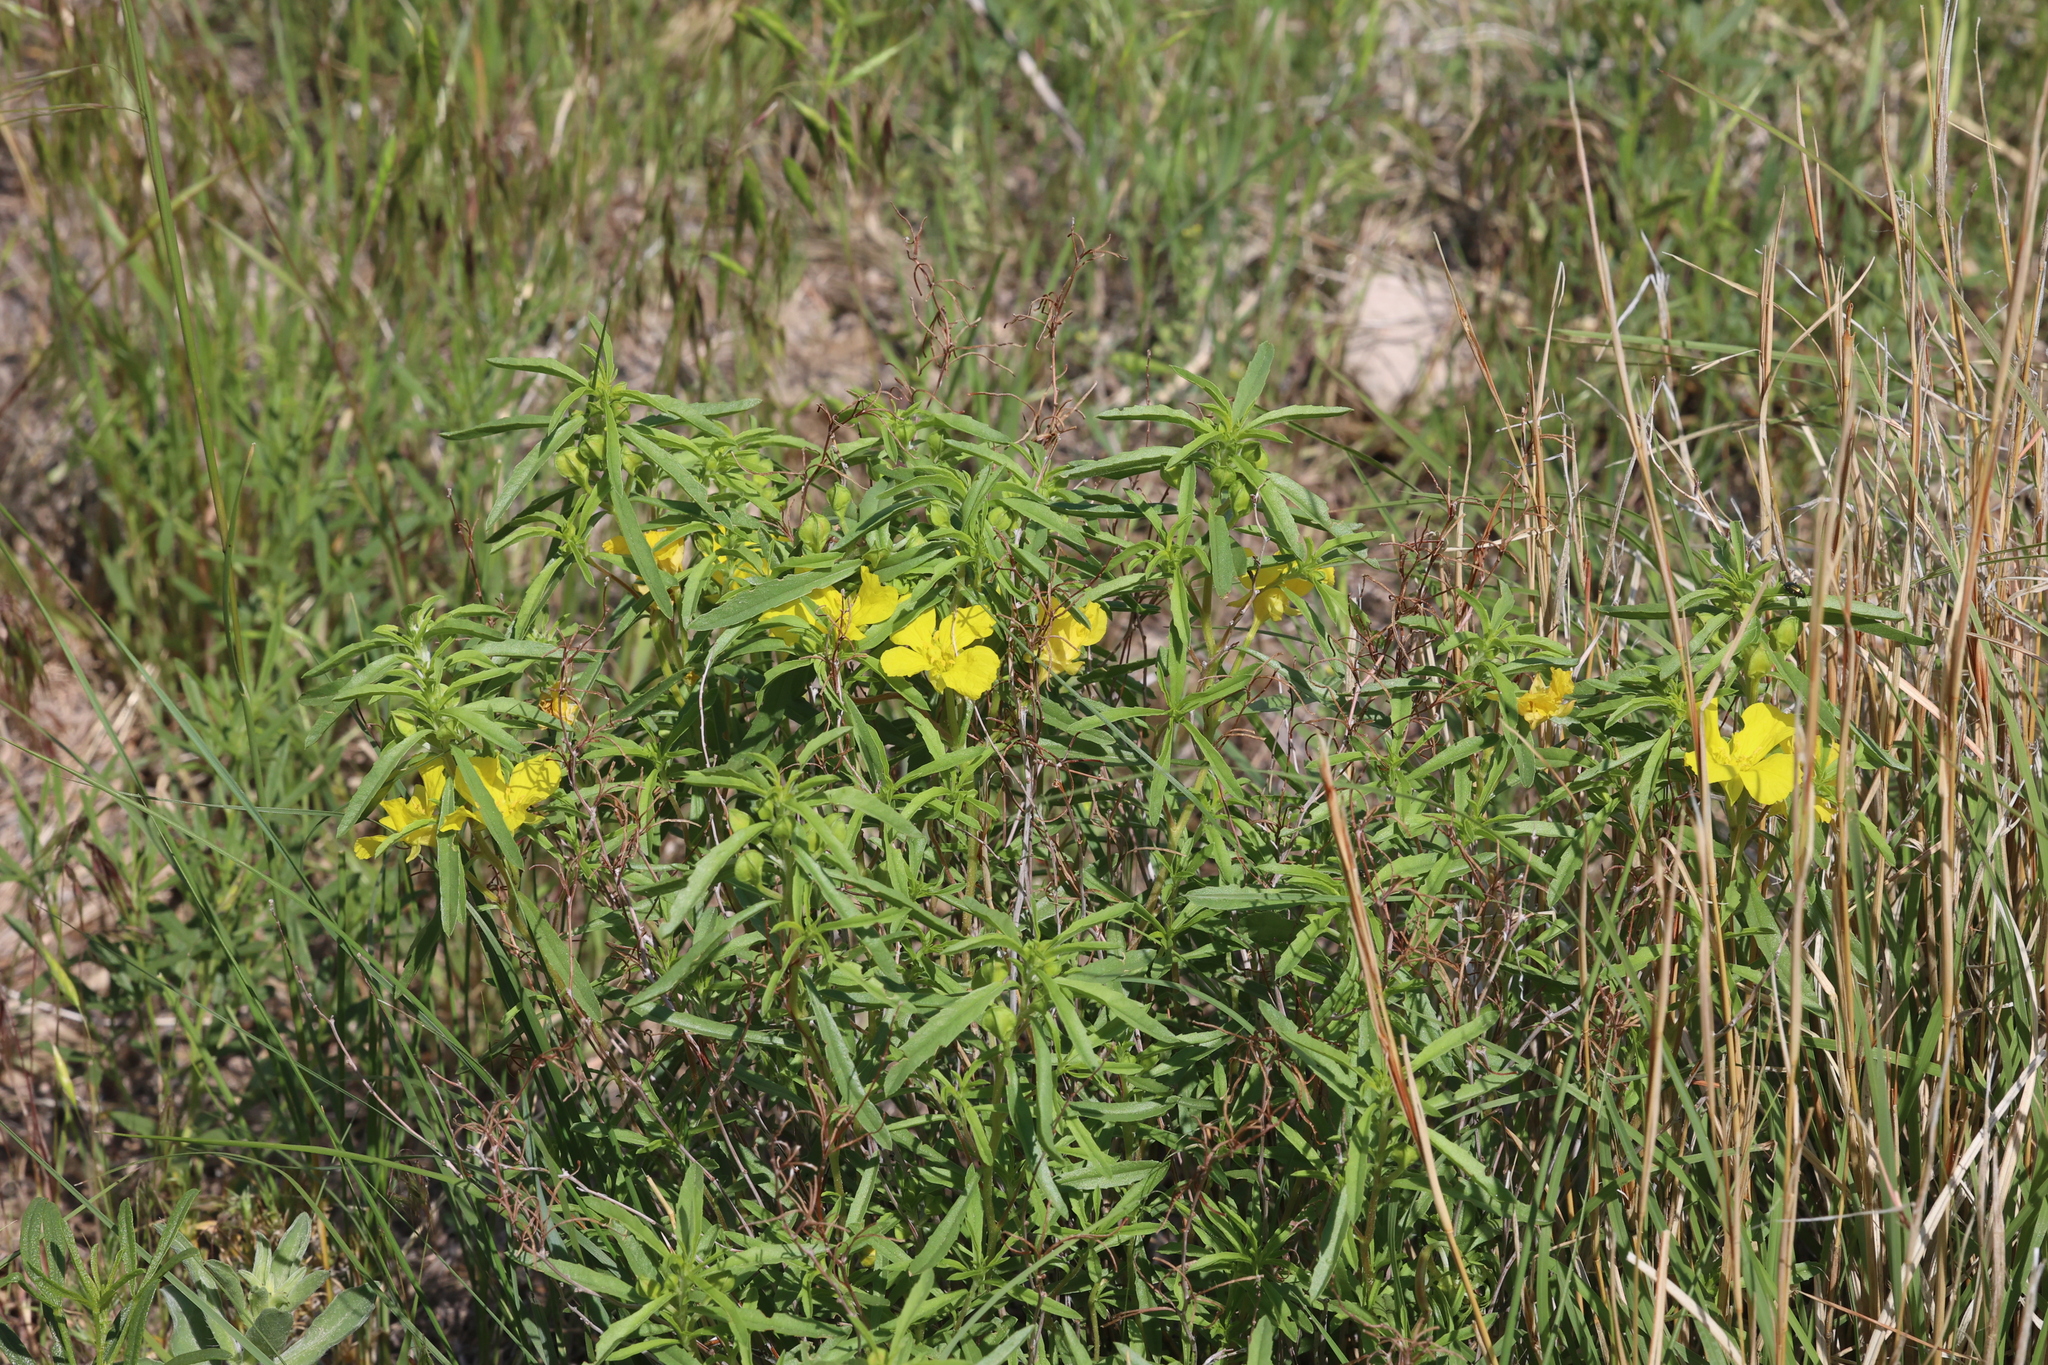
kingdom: Plantae
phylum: Tracheophyta
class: Magnoliopsida
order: Myrtales
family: Onagraceae
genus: Oenothera
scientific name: Oenothera serrulata
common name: Half-shrub calylophus
